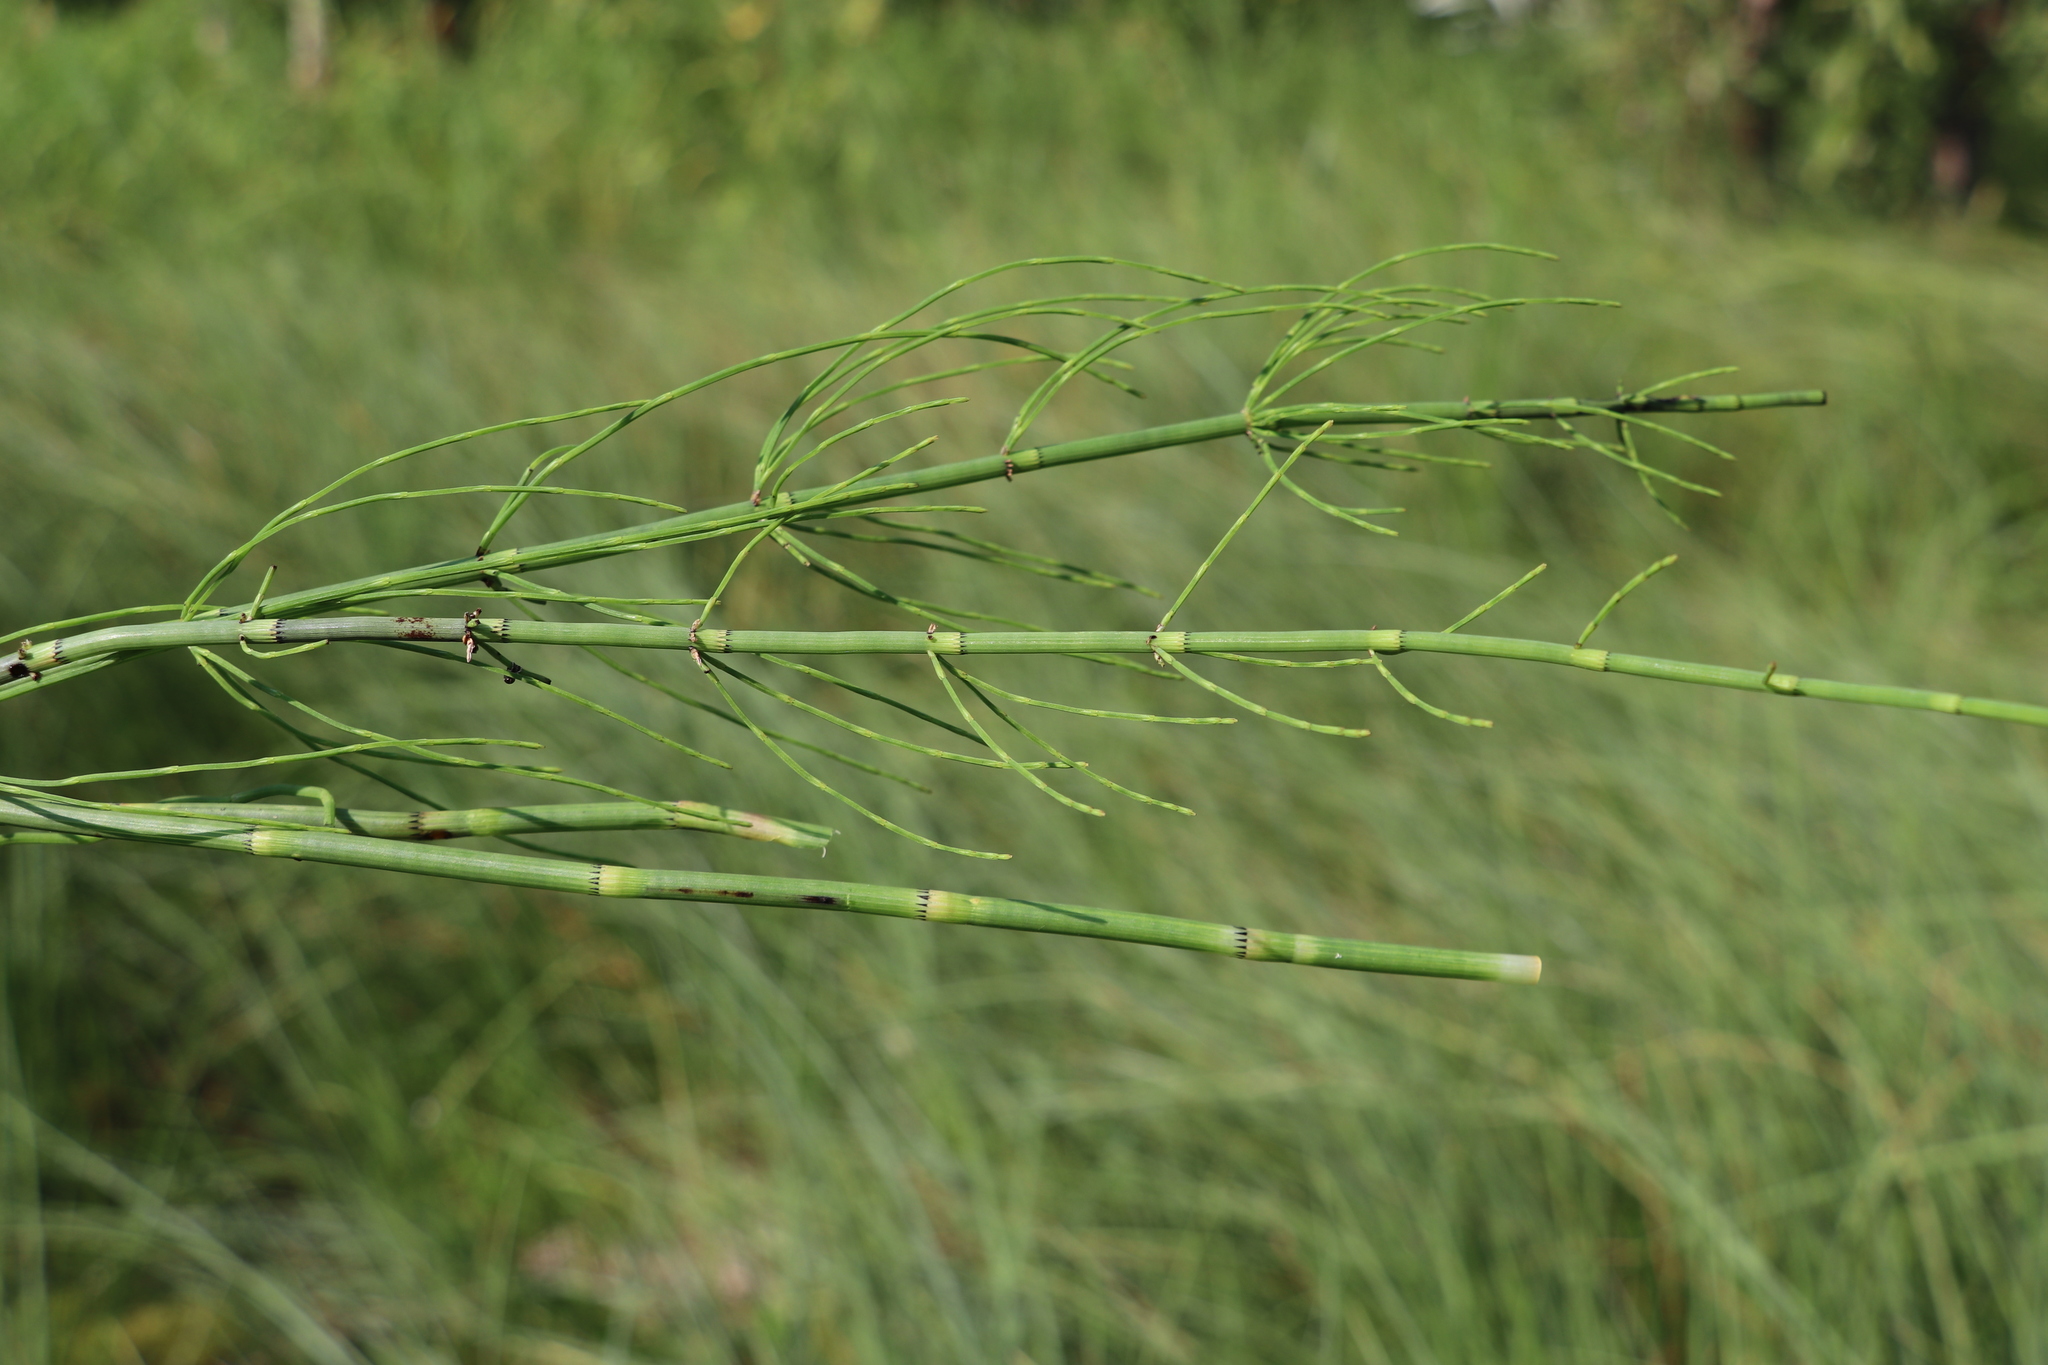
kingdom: Plantae
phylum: Tracheophyta
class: Polypodiopsida
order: Equisetales
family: Equisetaceae
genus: Equisetum
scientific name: Equisetum fluviatile
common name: Water horsetail
